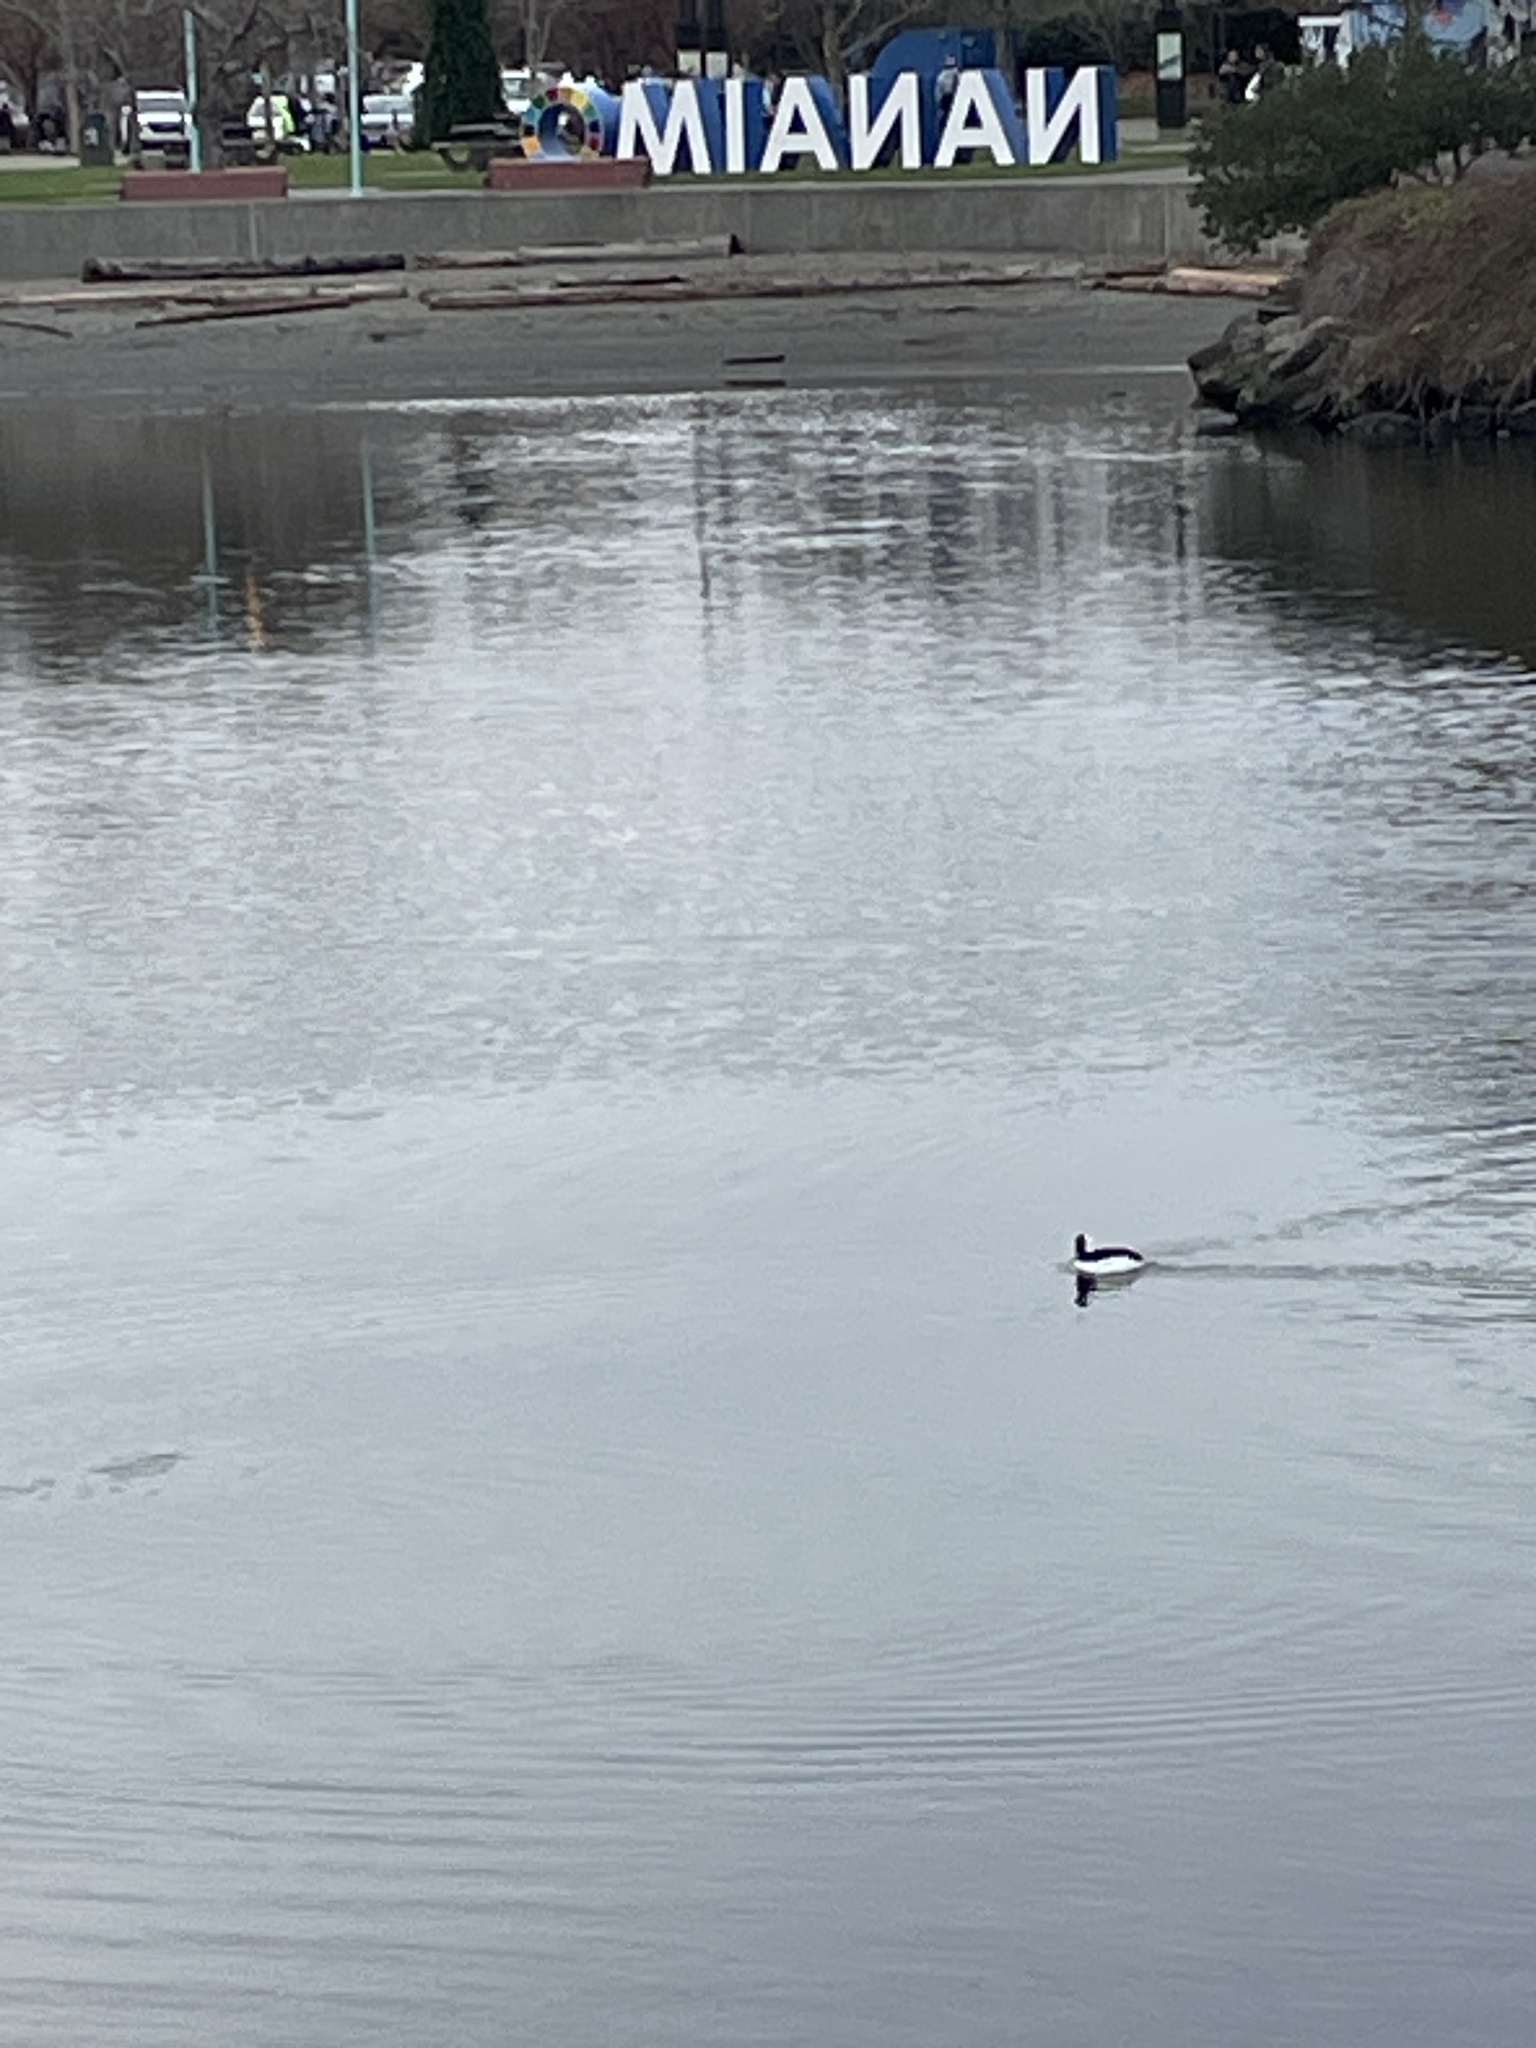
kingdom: Animalia
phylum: Chordata
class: Aves
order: Anseriformes
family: Anatidae
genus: Bucephala
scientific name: Bucephala albeola
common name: Bufflehead
